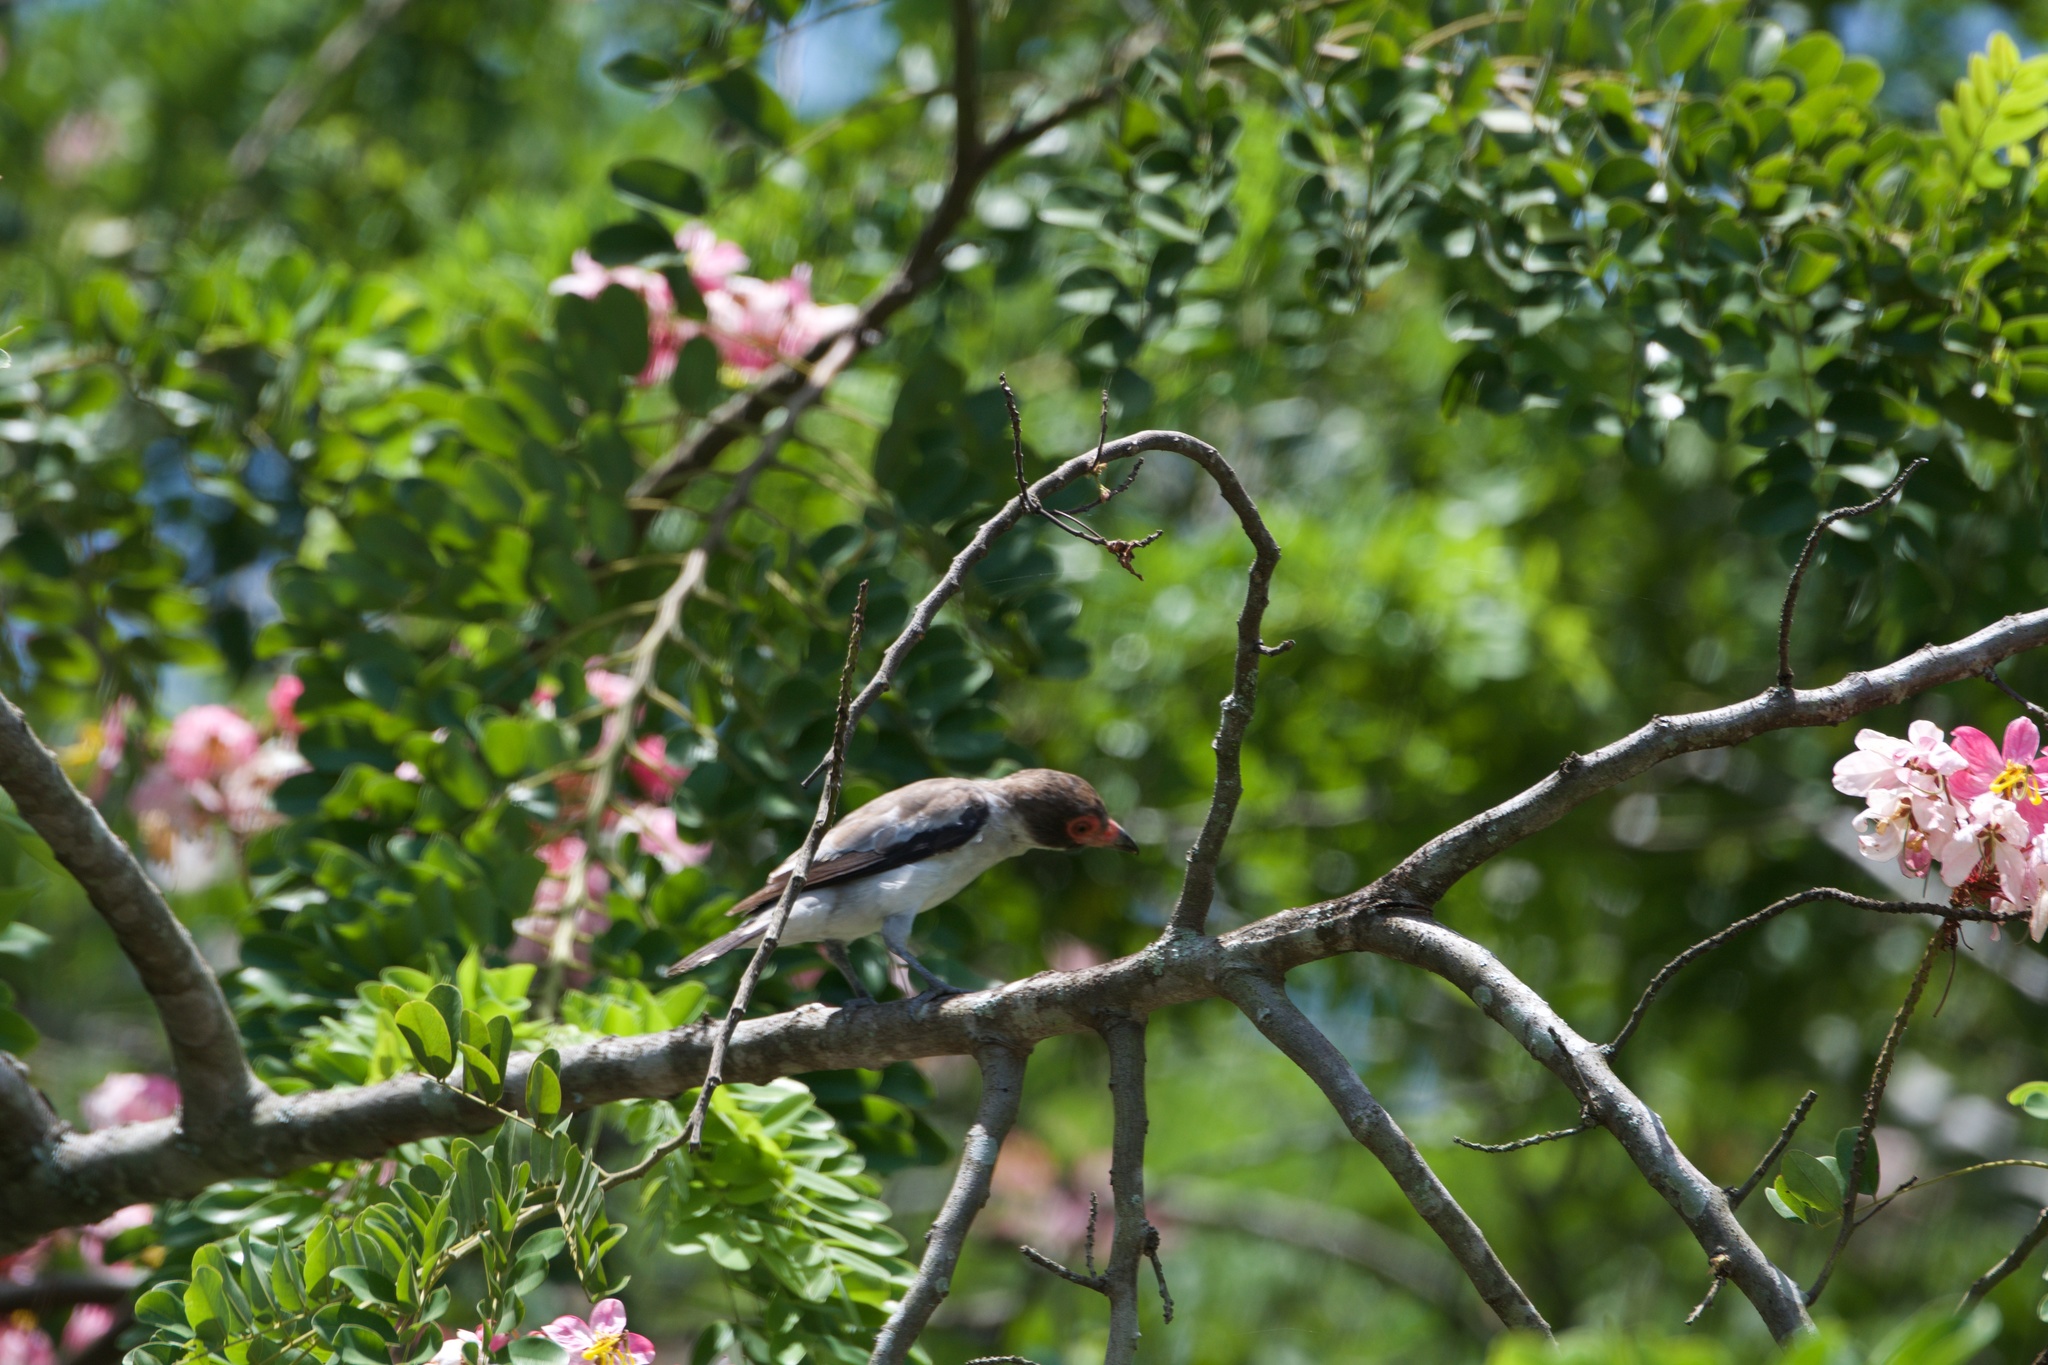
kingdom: Animalia
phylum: Chordata
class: Aves
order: Passeriformes
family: Cotingidae
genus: Tityra
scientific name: Tityra semifasciata
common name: Masked tityra
